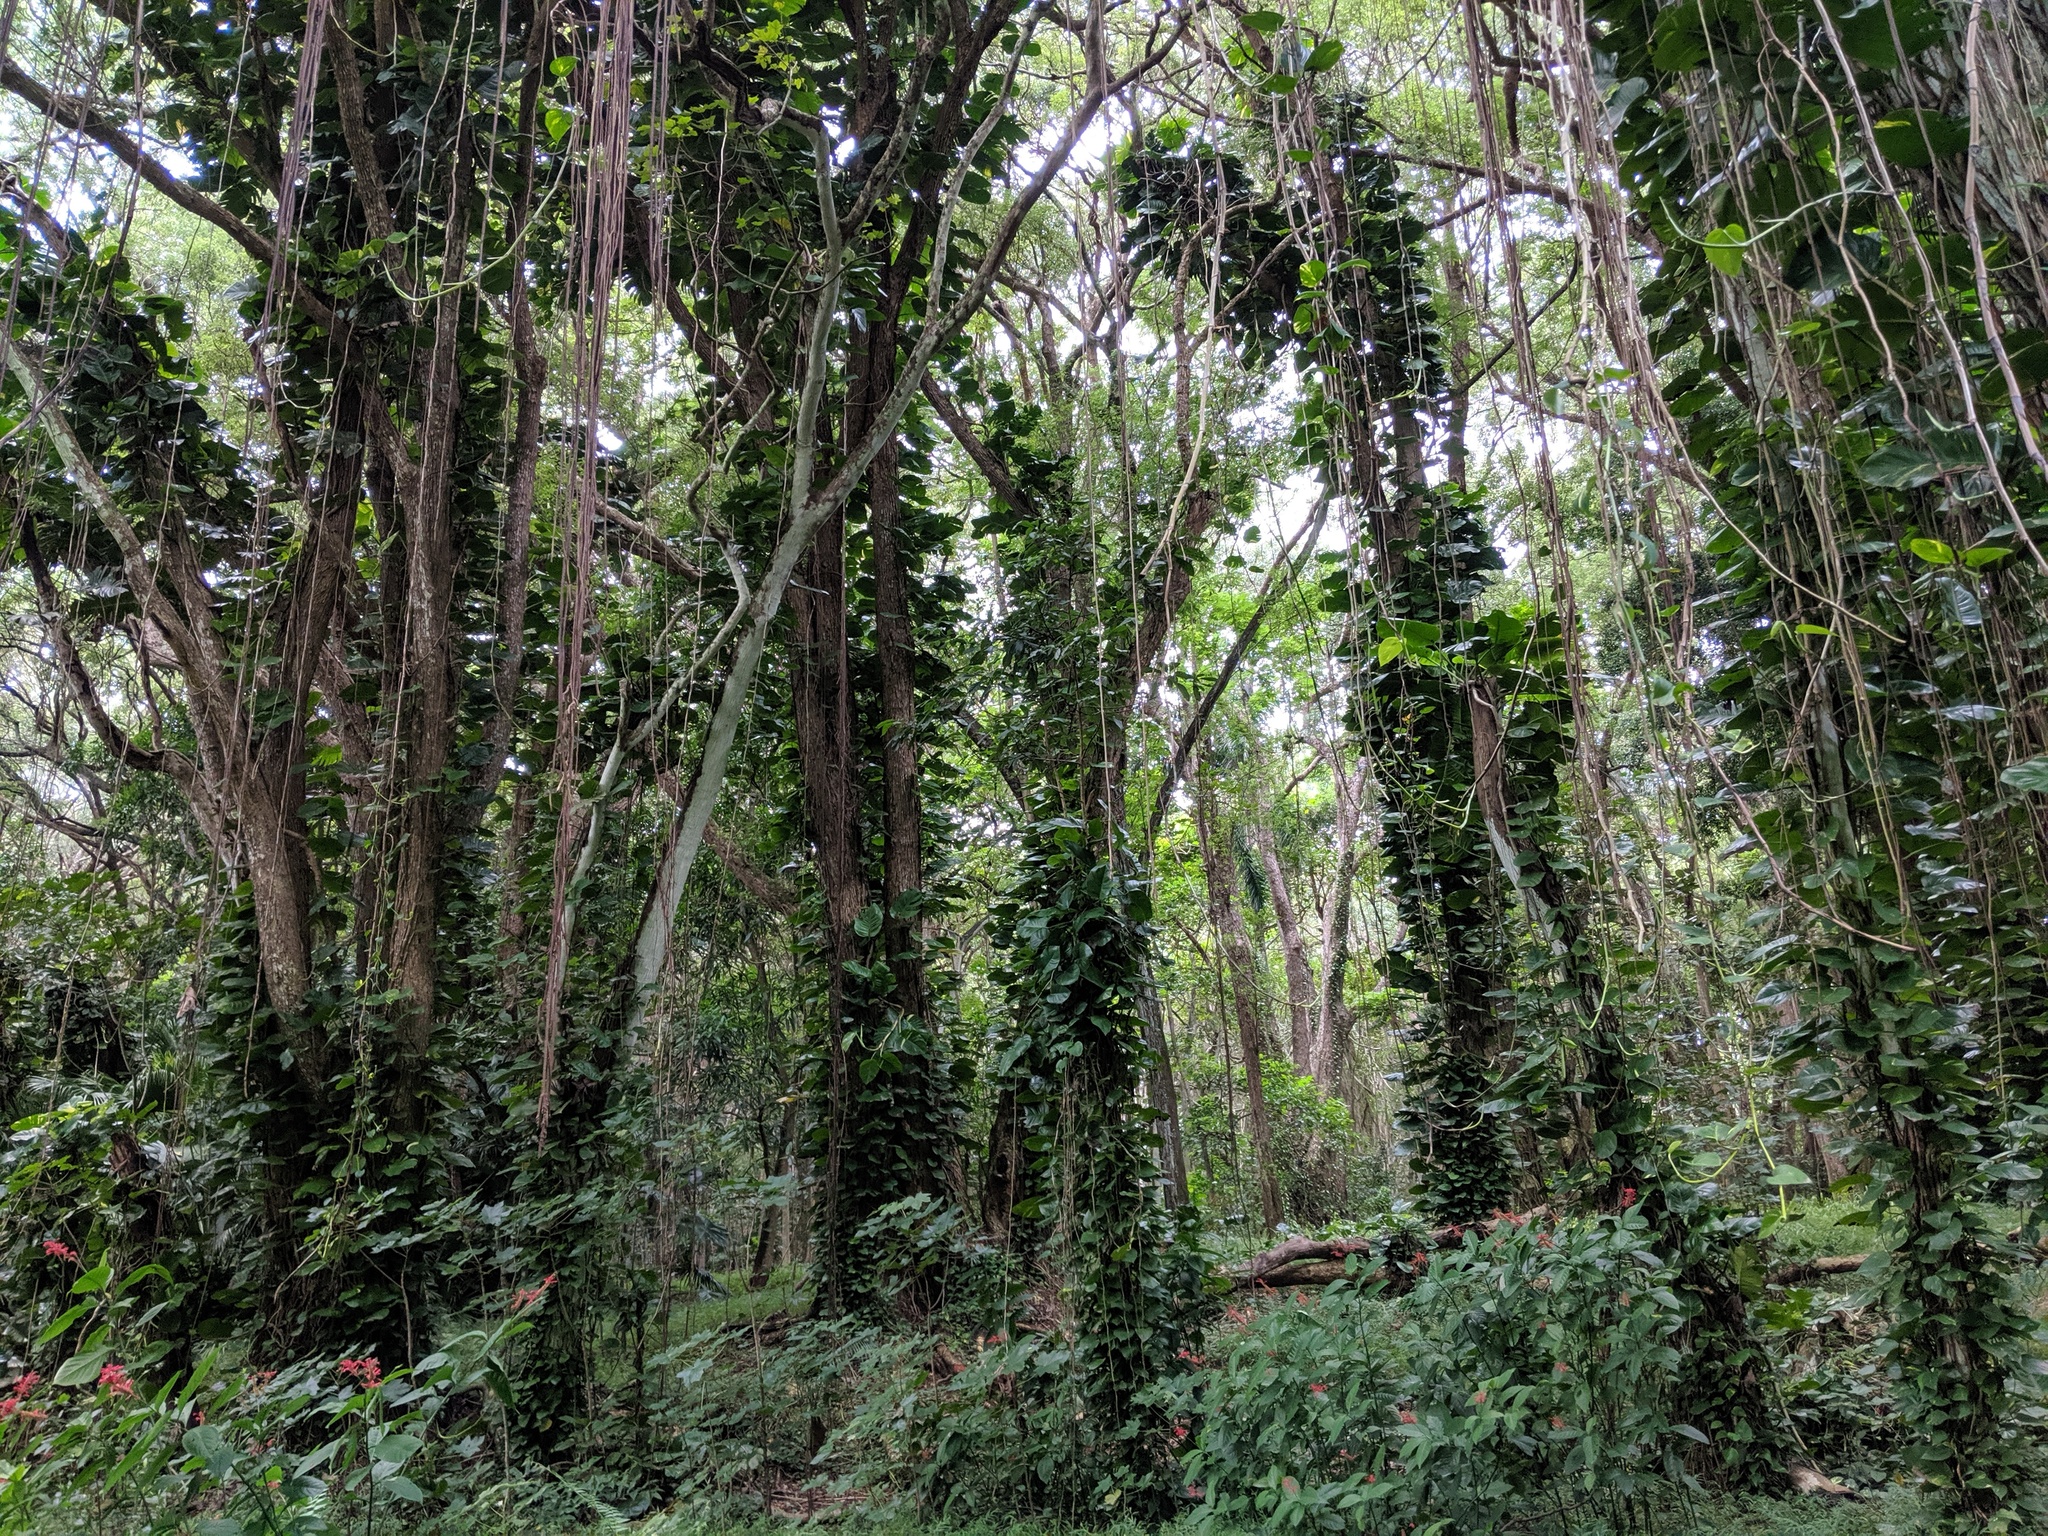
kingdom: Plantae
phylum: Tracheophyta
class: Liliopsida
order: Alismatales
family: Araceae
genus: Epipremnum
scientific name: Epipremnum aureum
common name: Golden hunter's-robe
